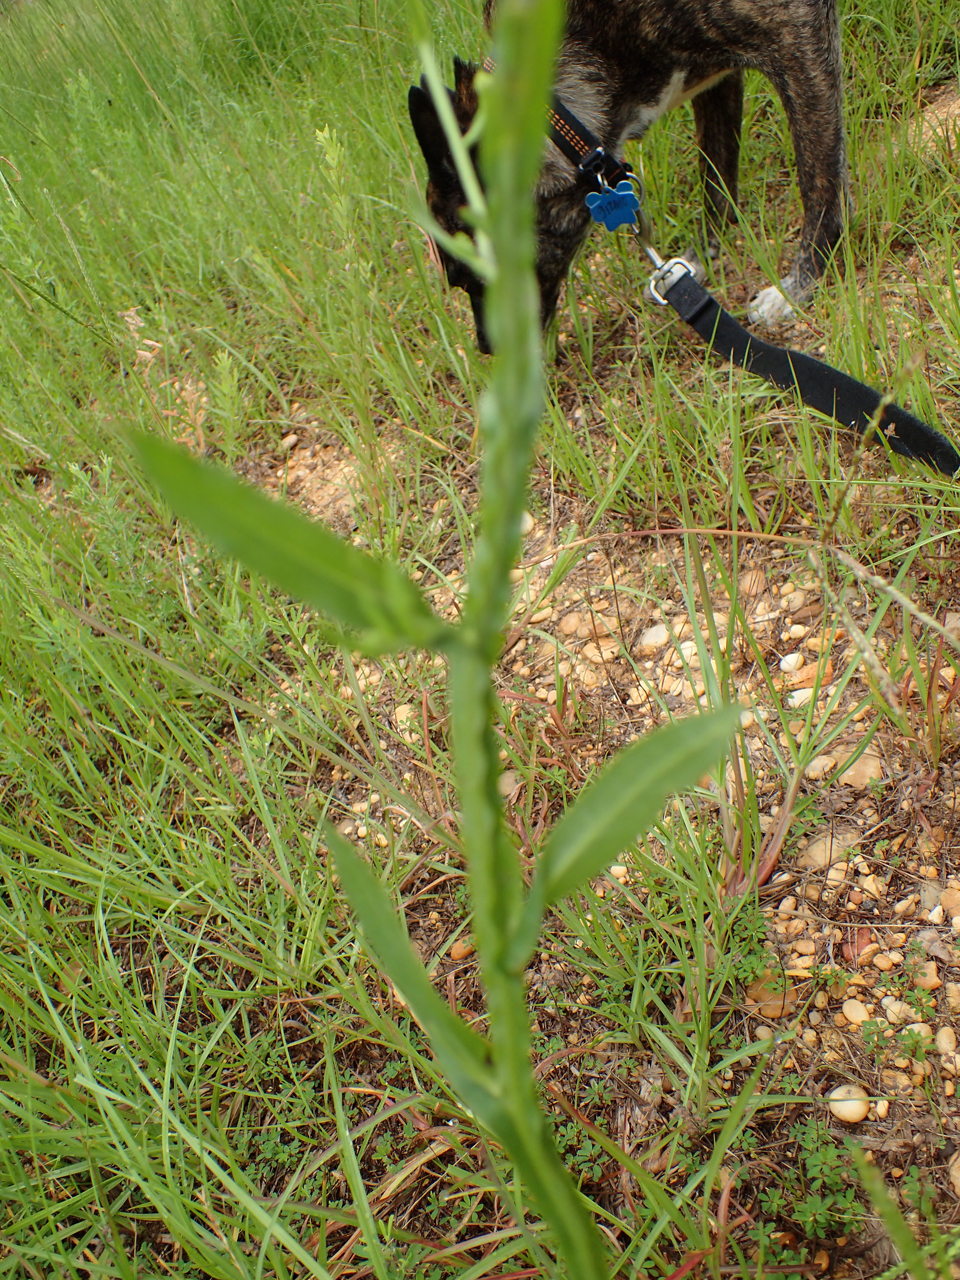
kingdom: Plantae
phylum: Tracheophyta
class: Magnoliopsida
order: Asterales
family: Asteraceae
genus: Helenium
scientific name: Helenium flexuosum
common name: Naked-flowered sneezeweed
